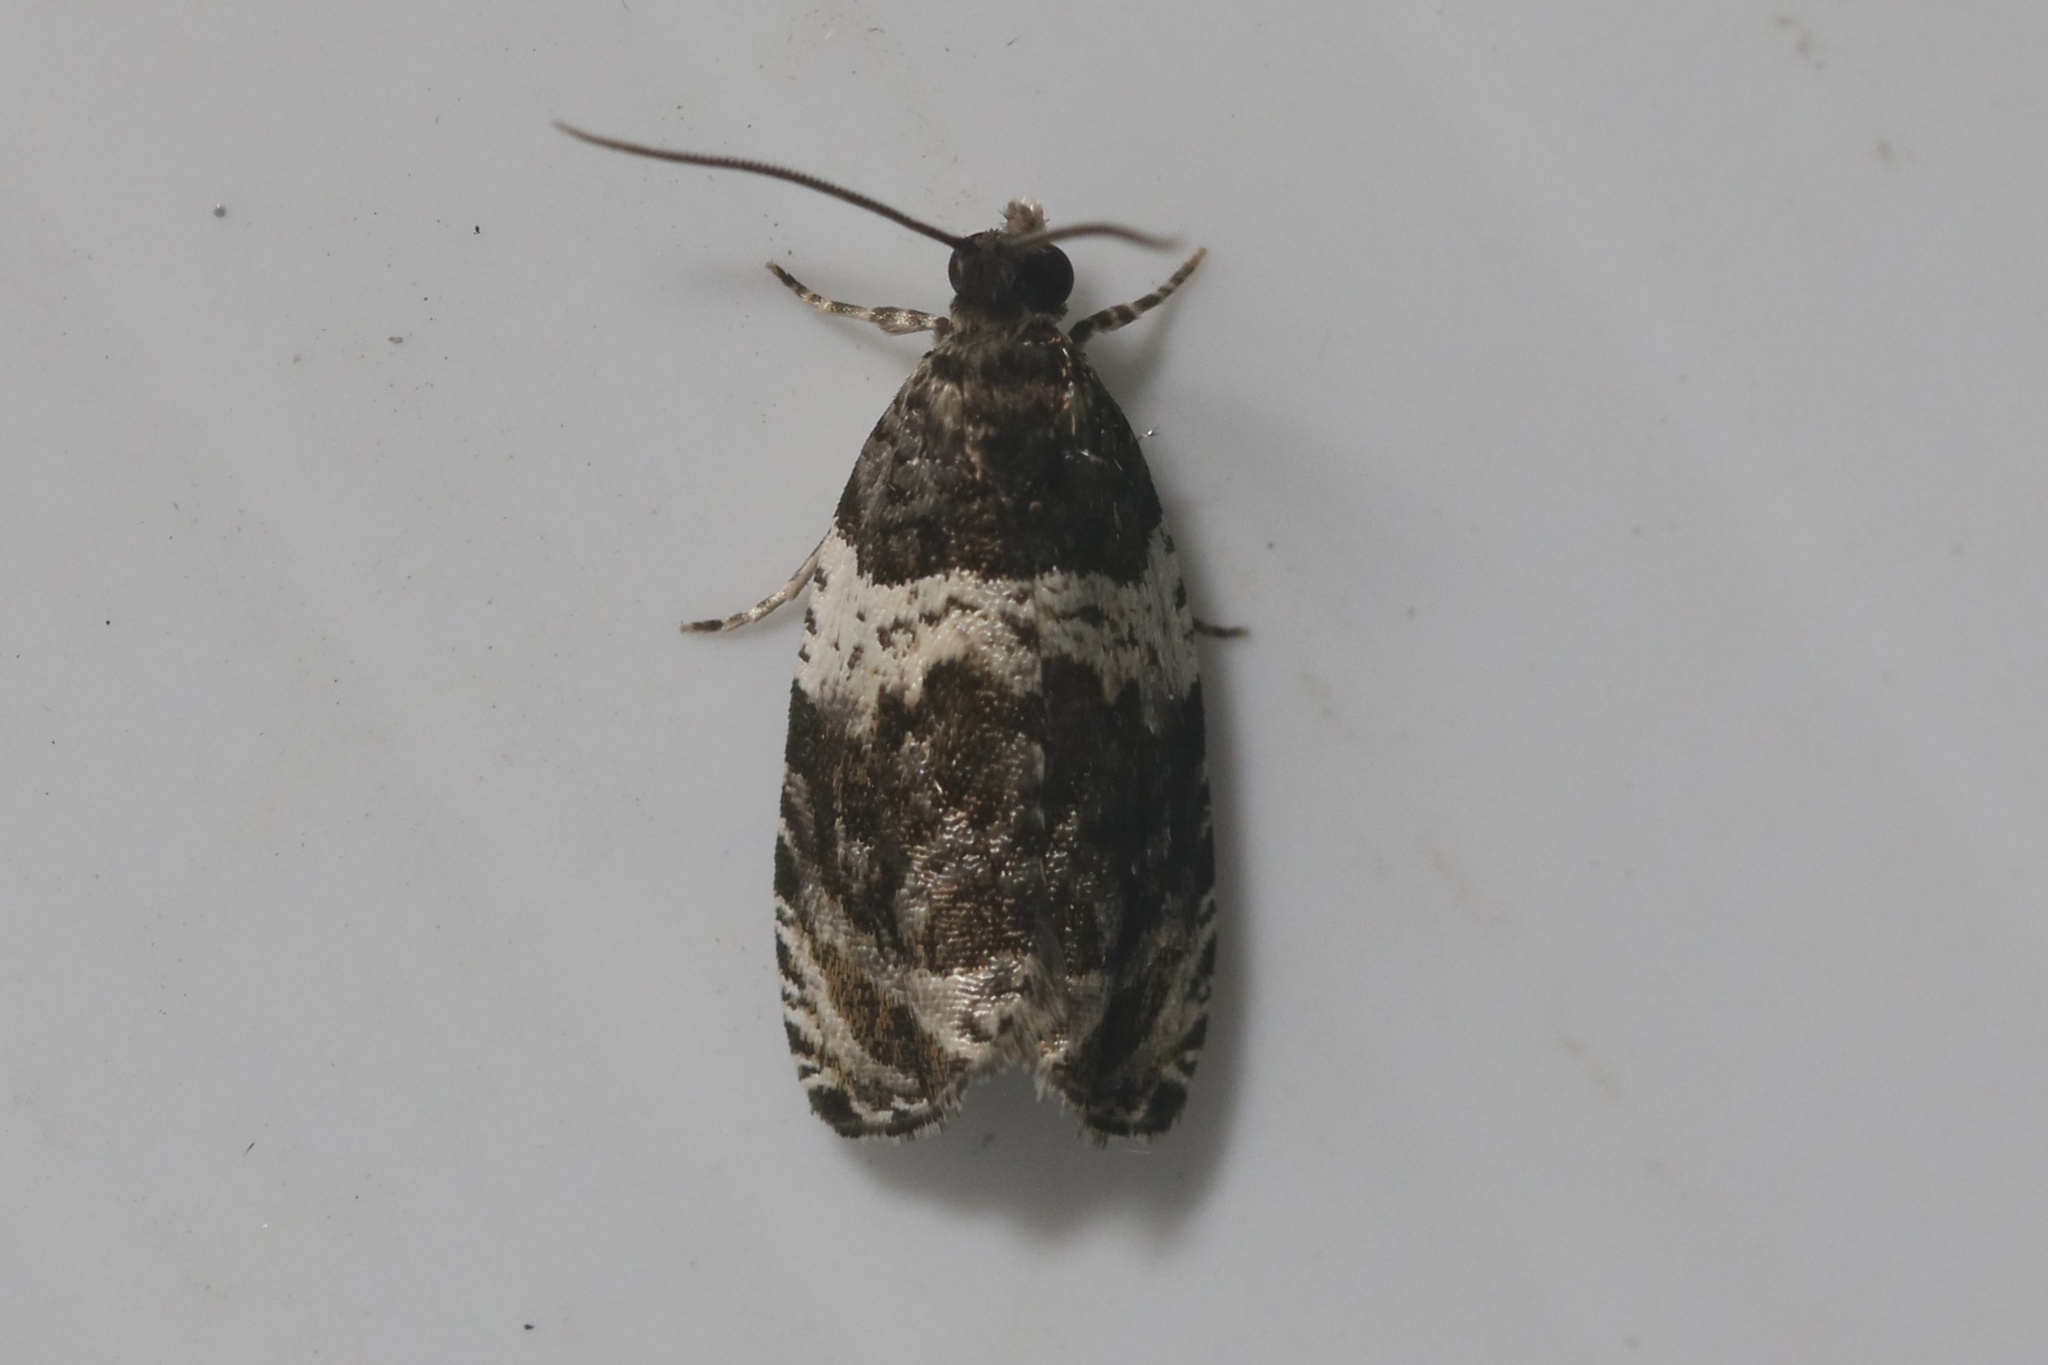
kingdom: Animalia
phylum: Arthropoda
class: Insecta
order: Lepidoptera
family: Tortricidae
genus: Olethreutes
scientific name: Olethreutes fasciatana
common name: Banded olethreutes moth
